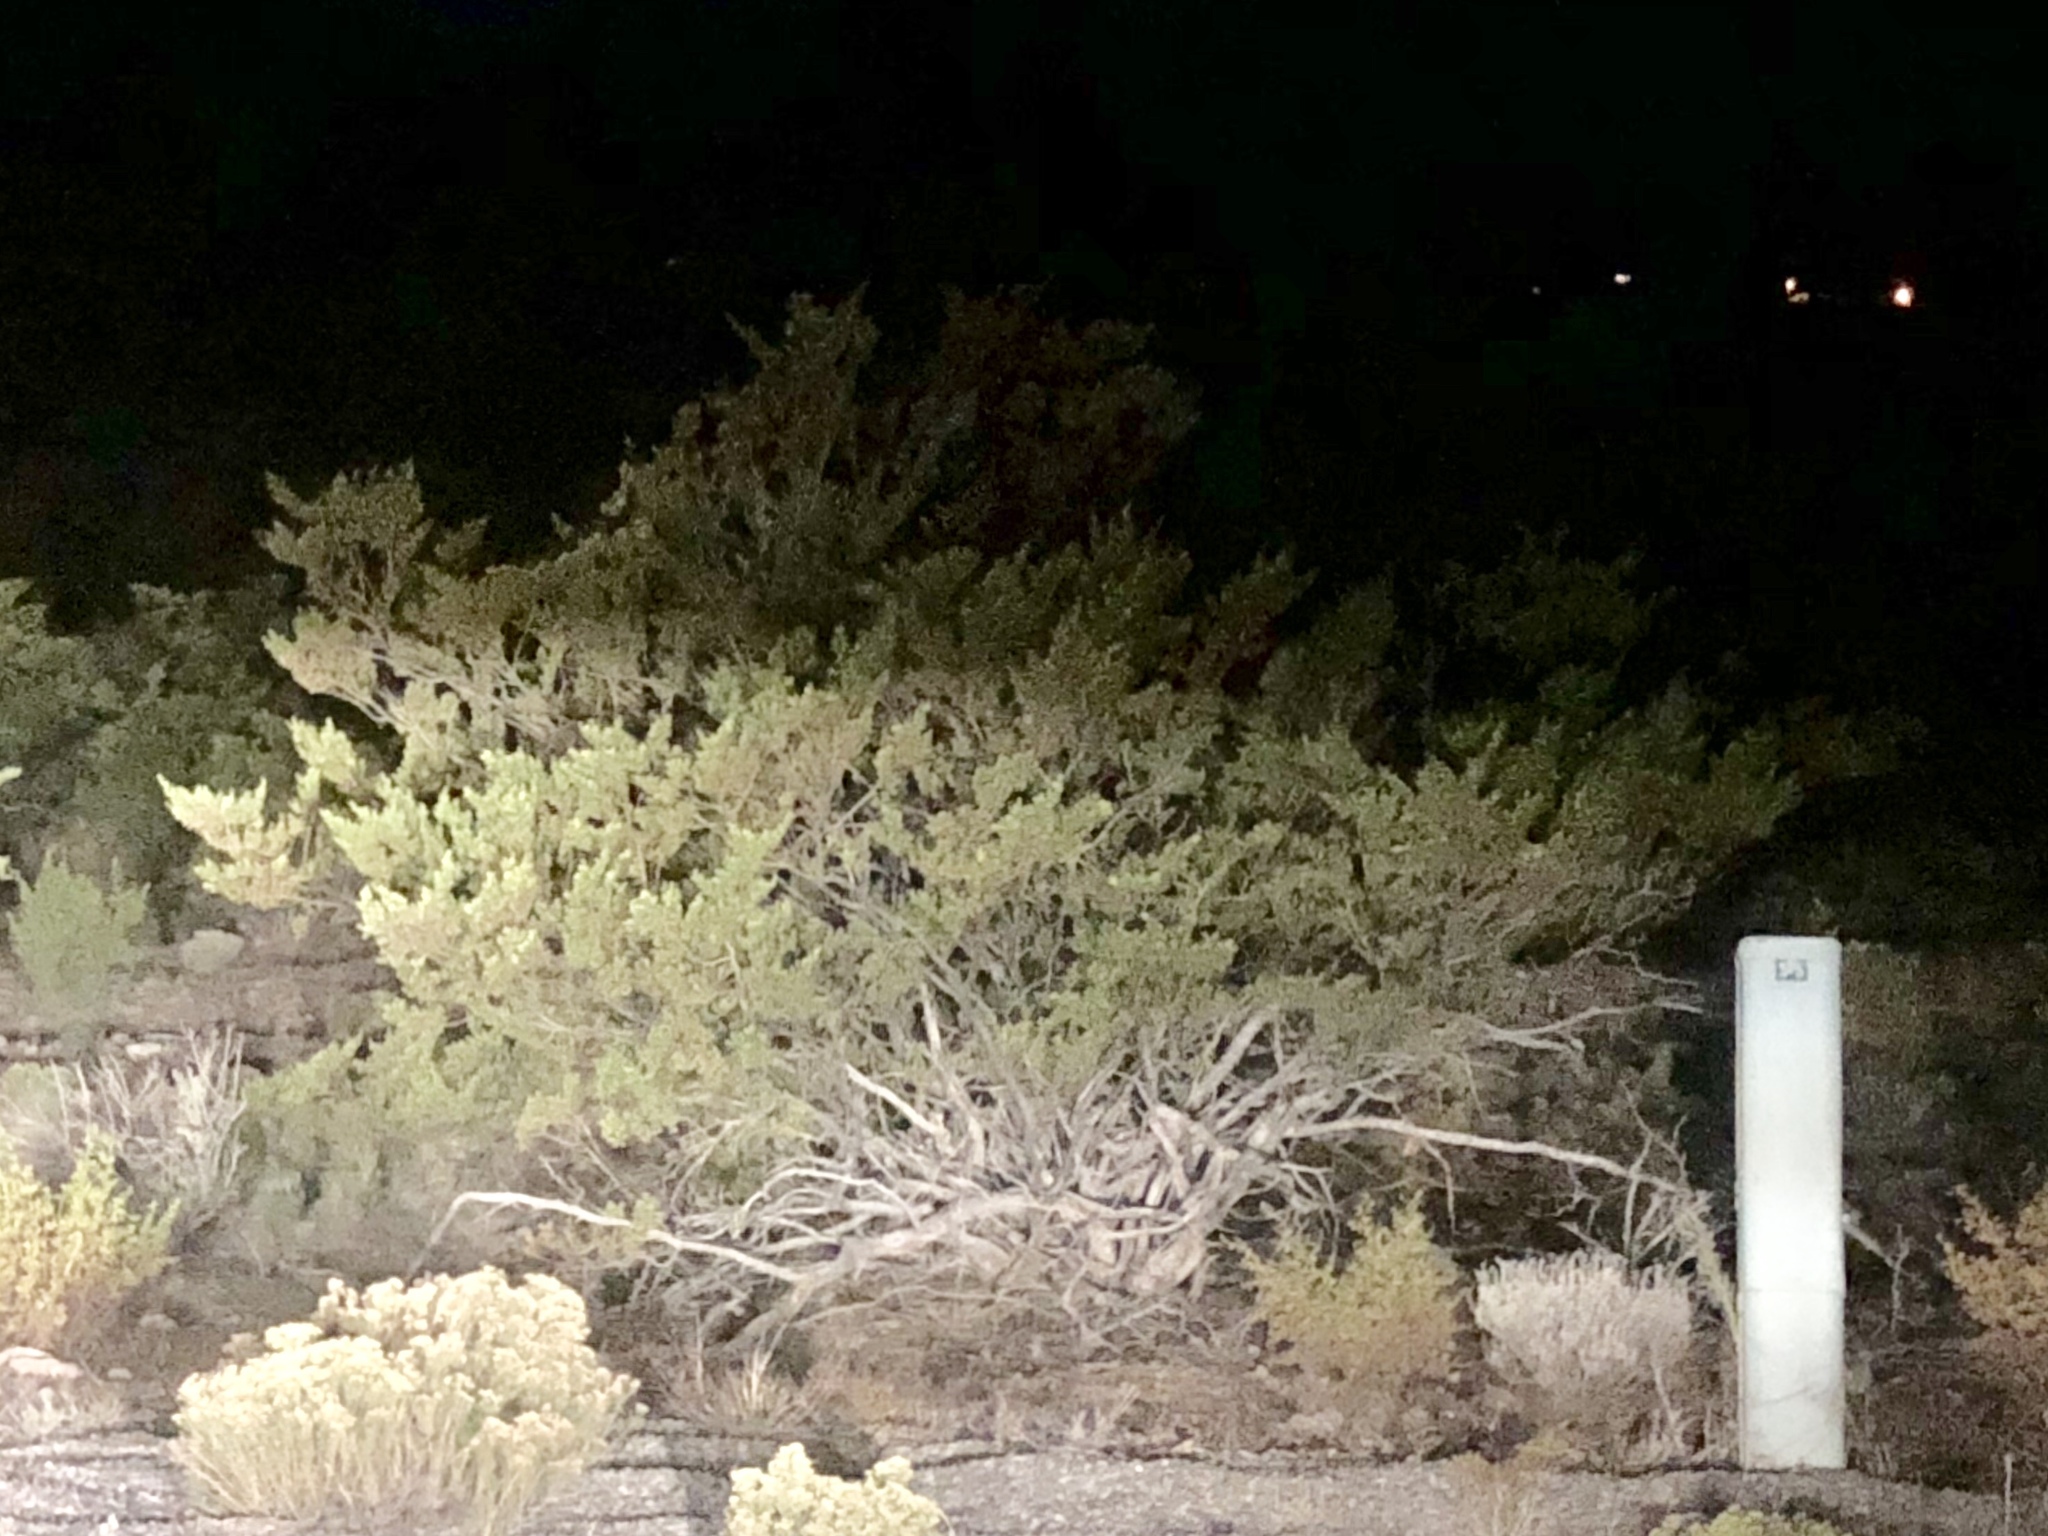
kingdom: Plantae
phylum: Tracheophyta
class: Magnoliopsida
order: Zygophyllales
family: Zygophyllaceae
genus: Larrea
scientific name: Larrea tridentata
